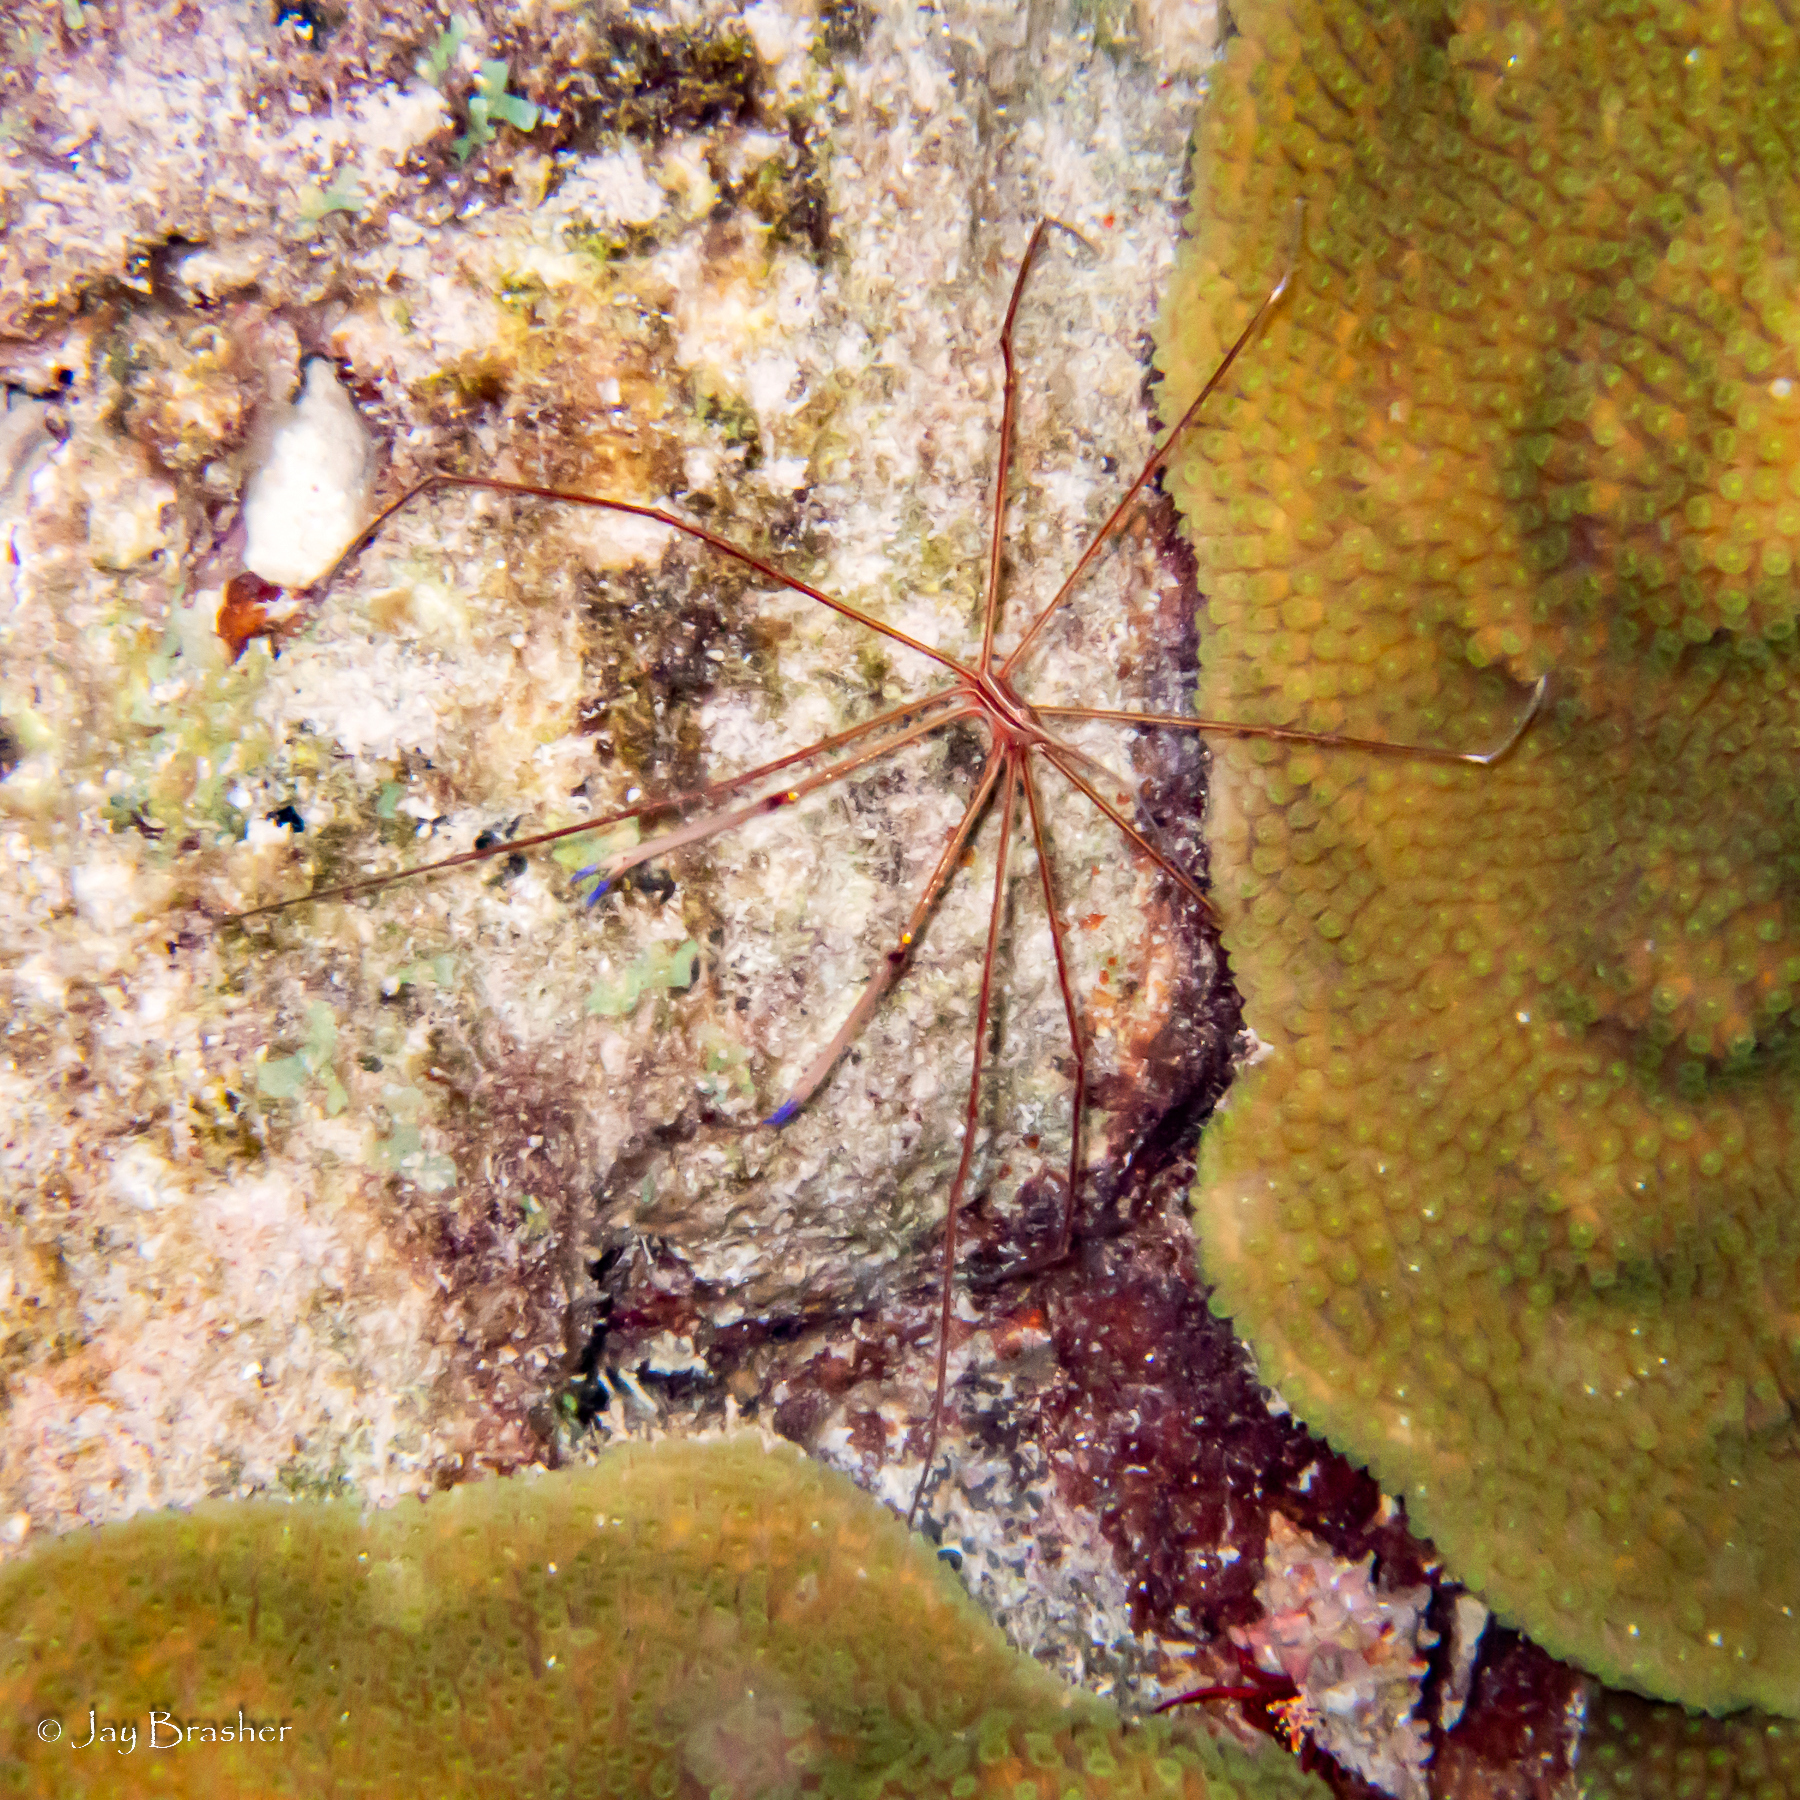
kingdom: Animalia
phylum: Arthropoda
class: Malacostraca
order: Decapoda
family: Inachoididae
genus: Stenorhynchus
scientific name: Stenorhynchus seticornis
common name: Arrow crab
